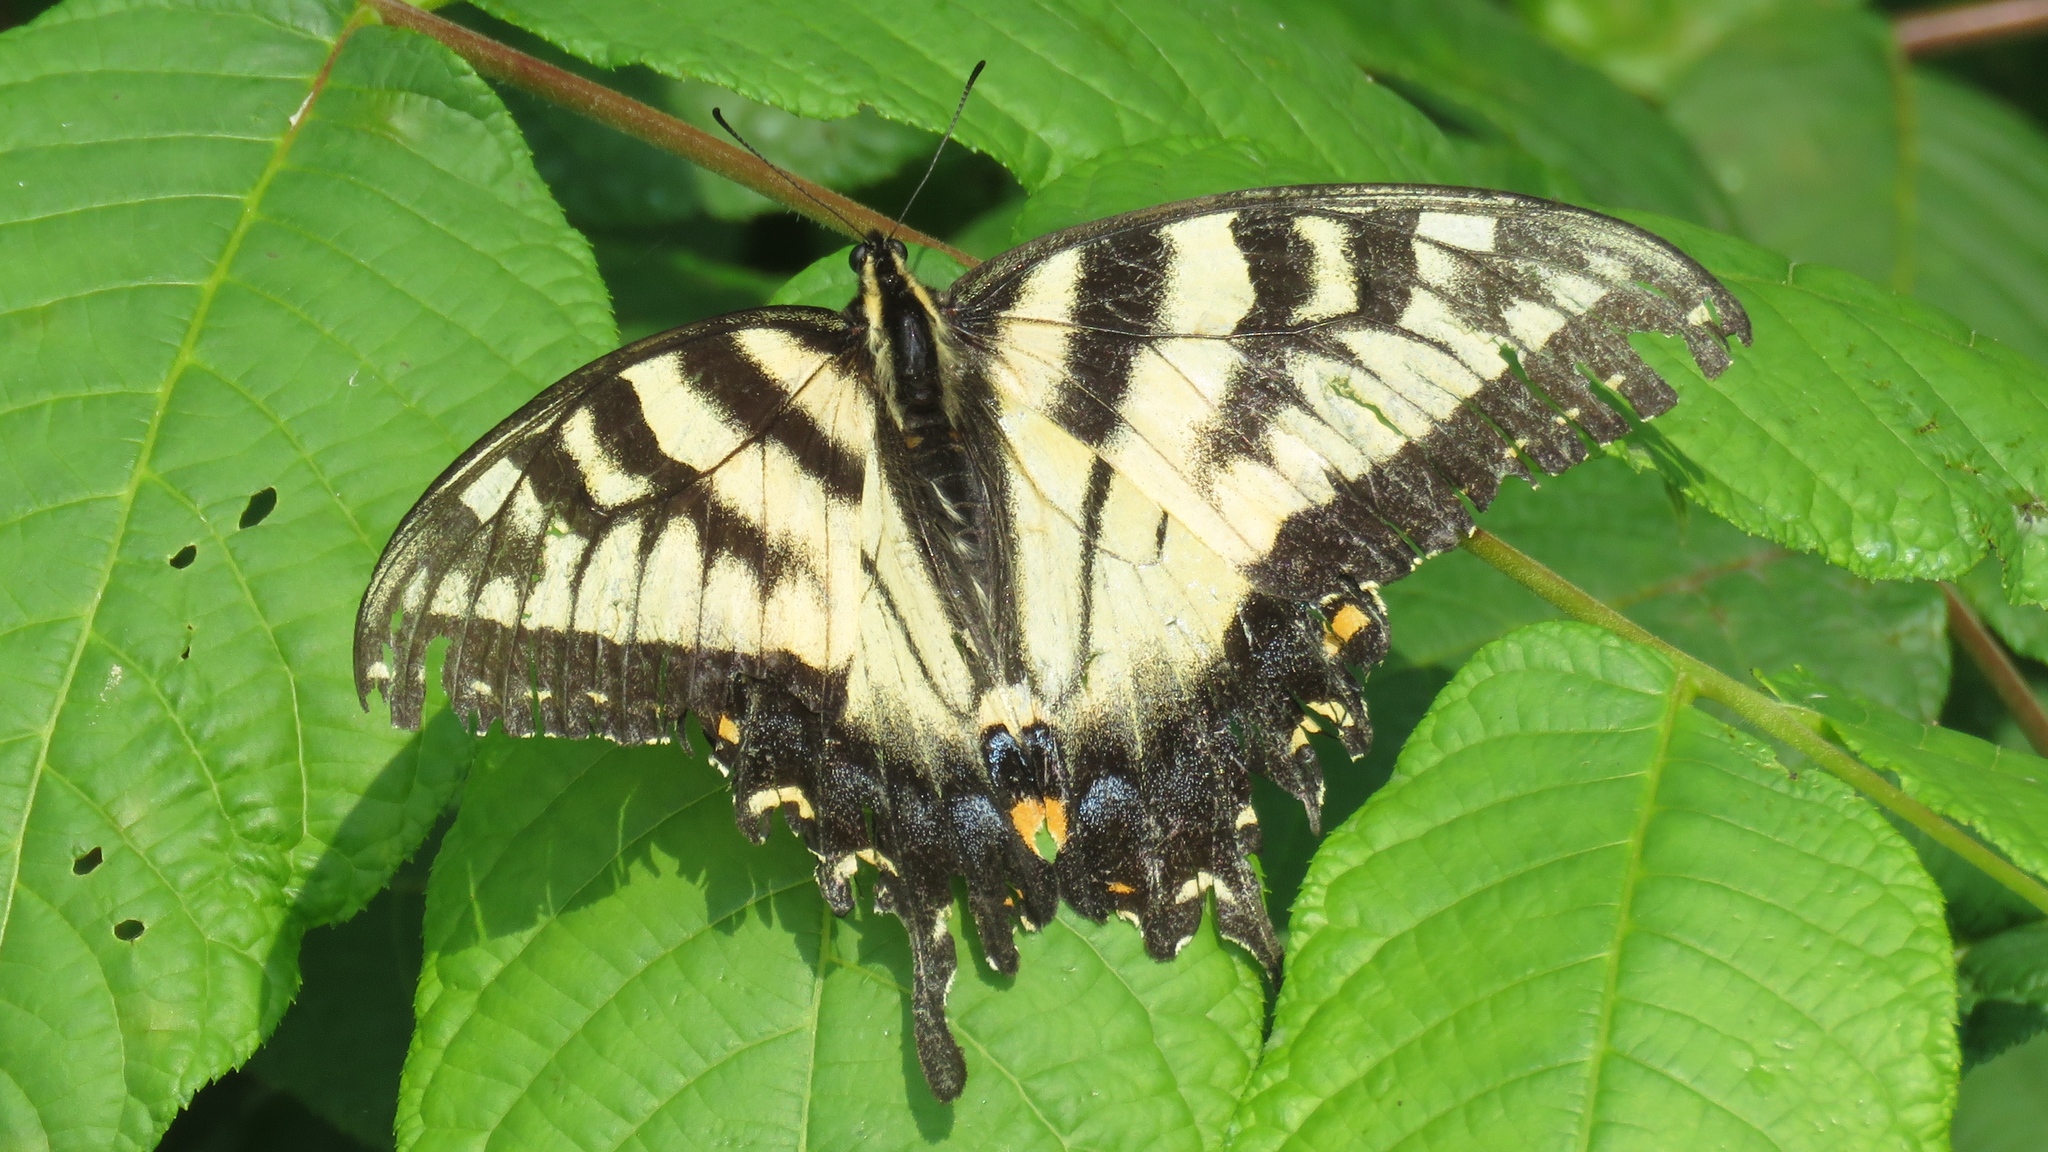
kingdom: Animalia
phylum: Arthropoda
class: Insecta
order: Lepidoptera
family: Papilionidae
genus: Papilio
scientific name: Papilio glaucus
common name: Tiger swallowtail
